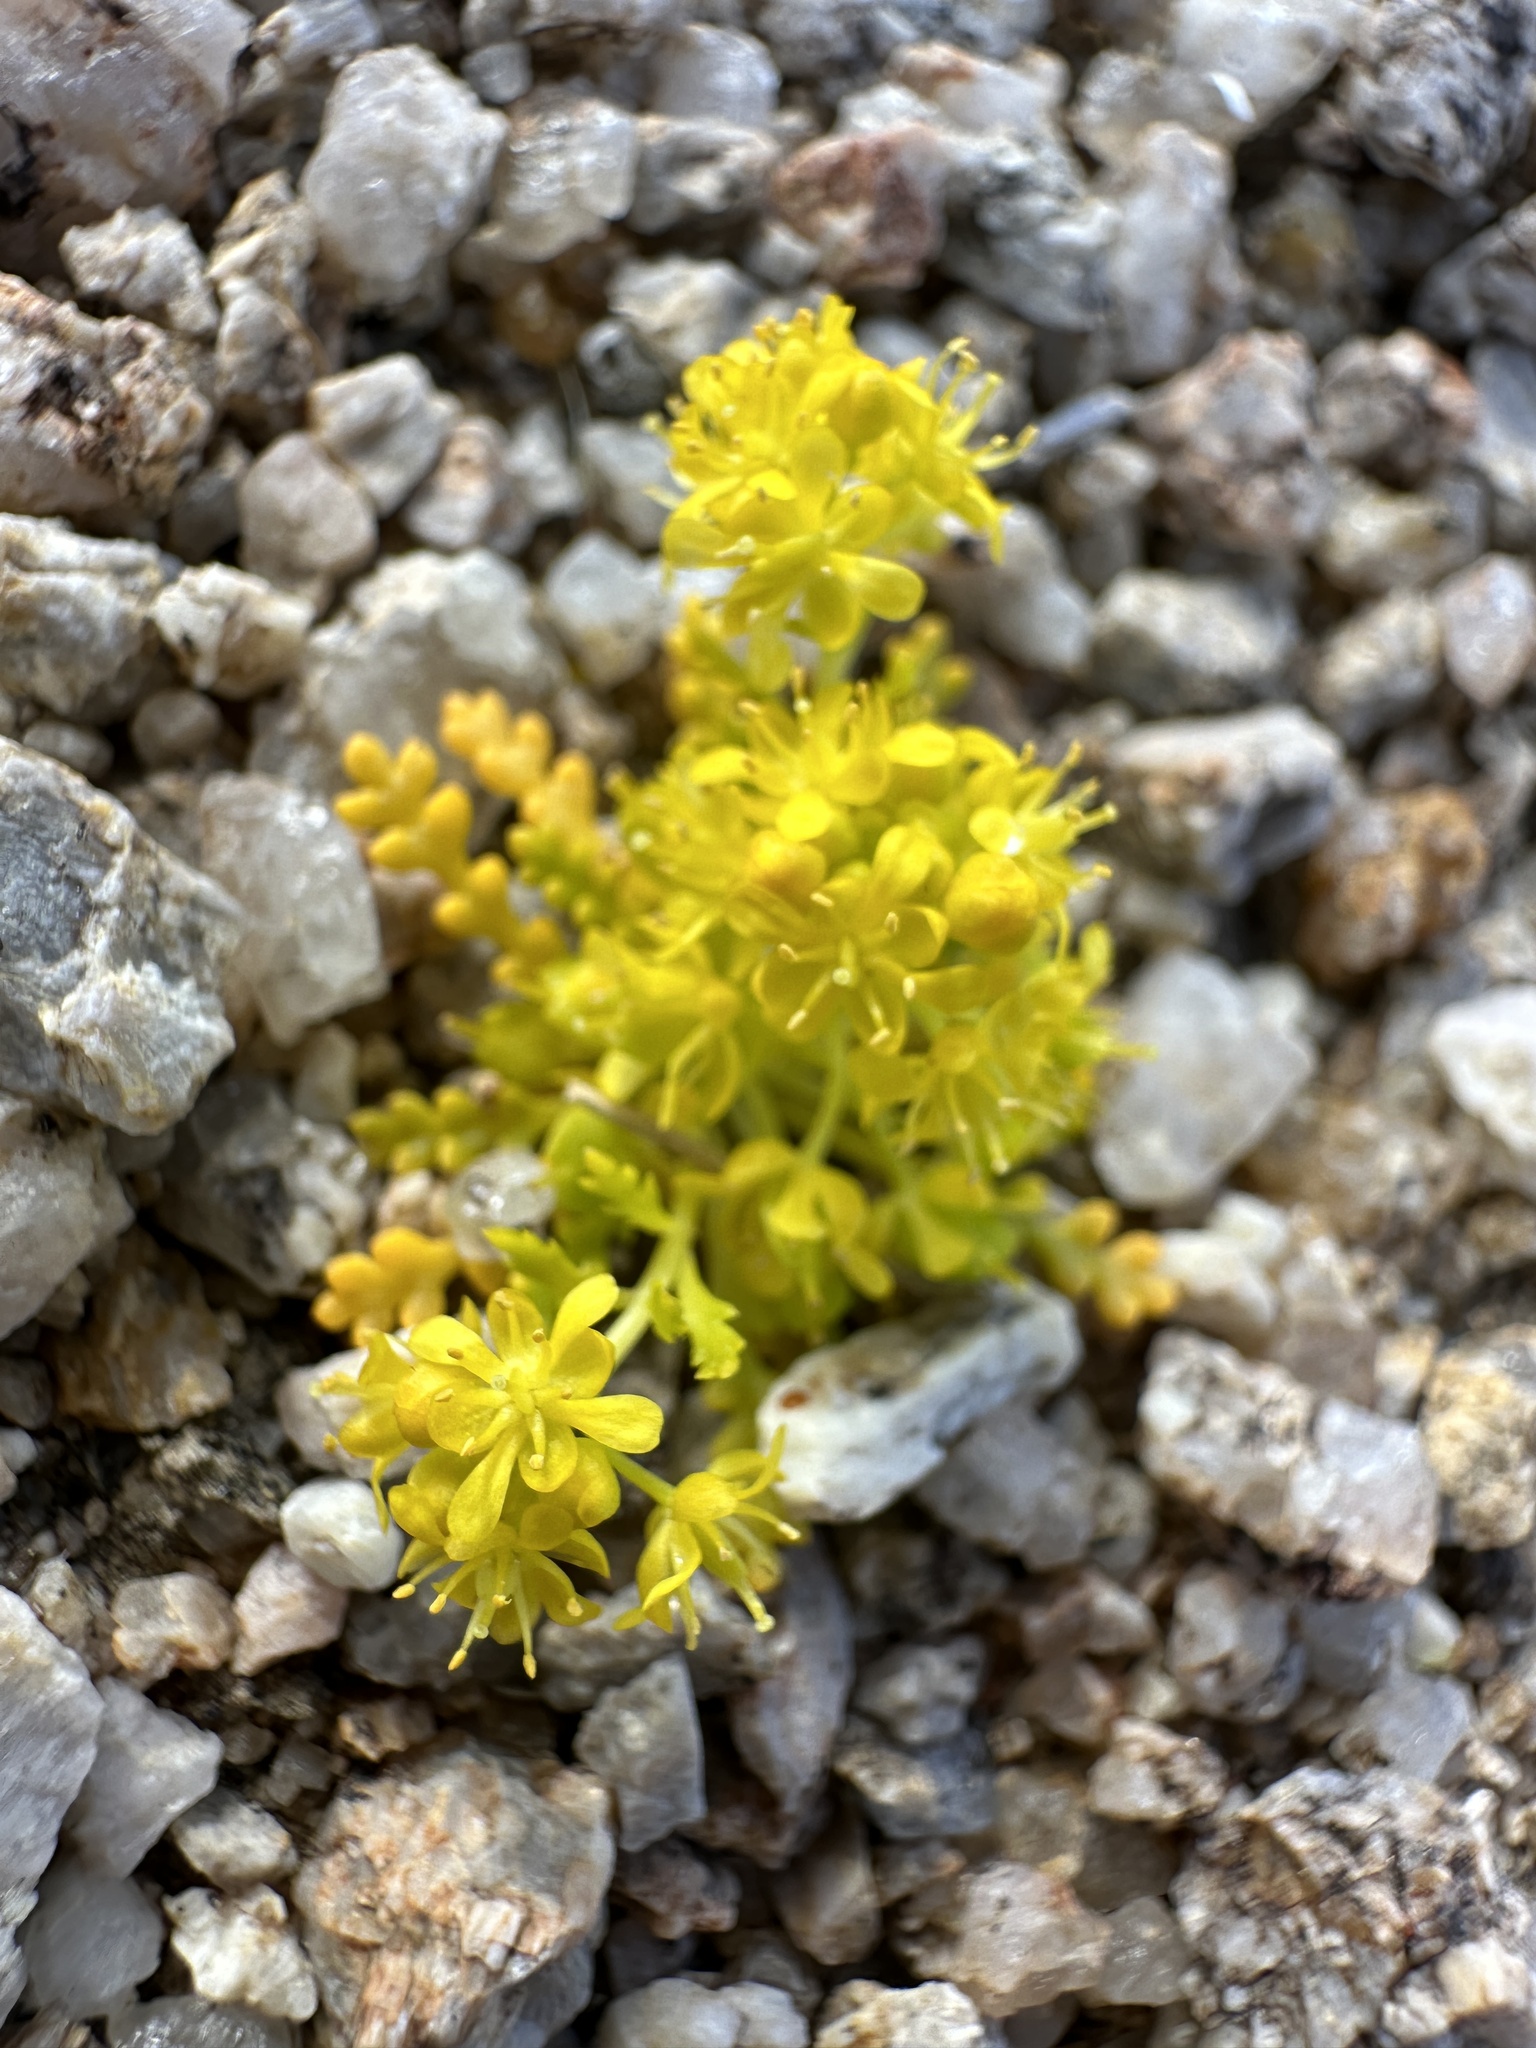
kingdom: Plantae
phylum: Tracheophyta
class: Magnoliopsida
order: Brassicales
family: Brassicaceae
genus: Lepidium
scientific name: Lepidium flavum
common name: Yellow pepperwort
